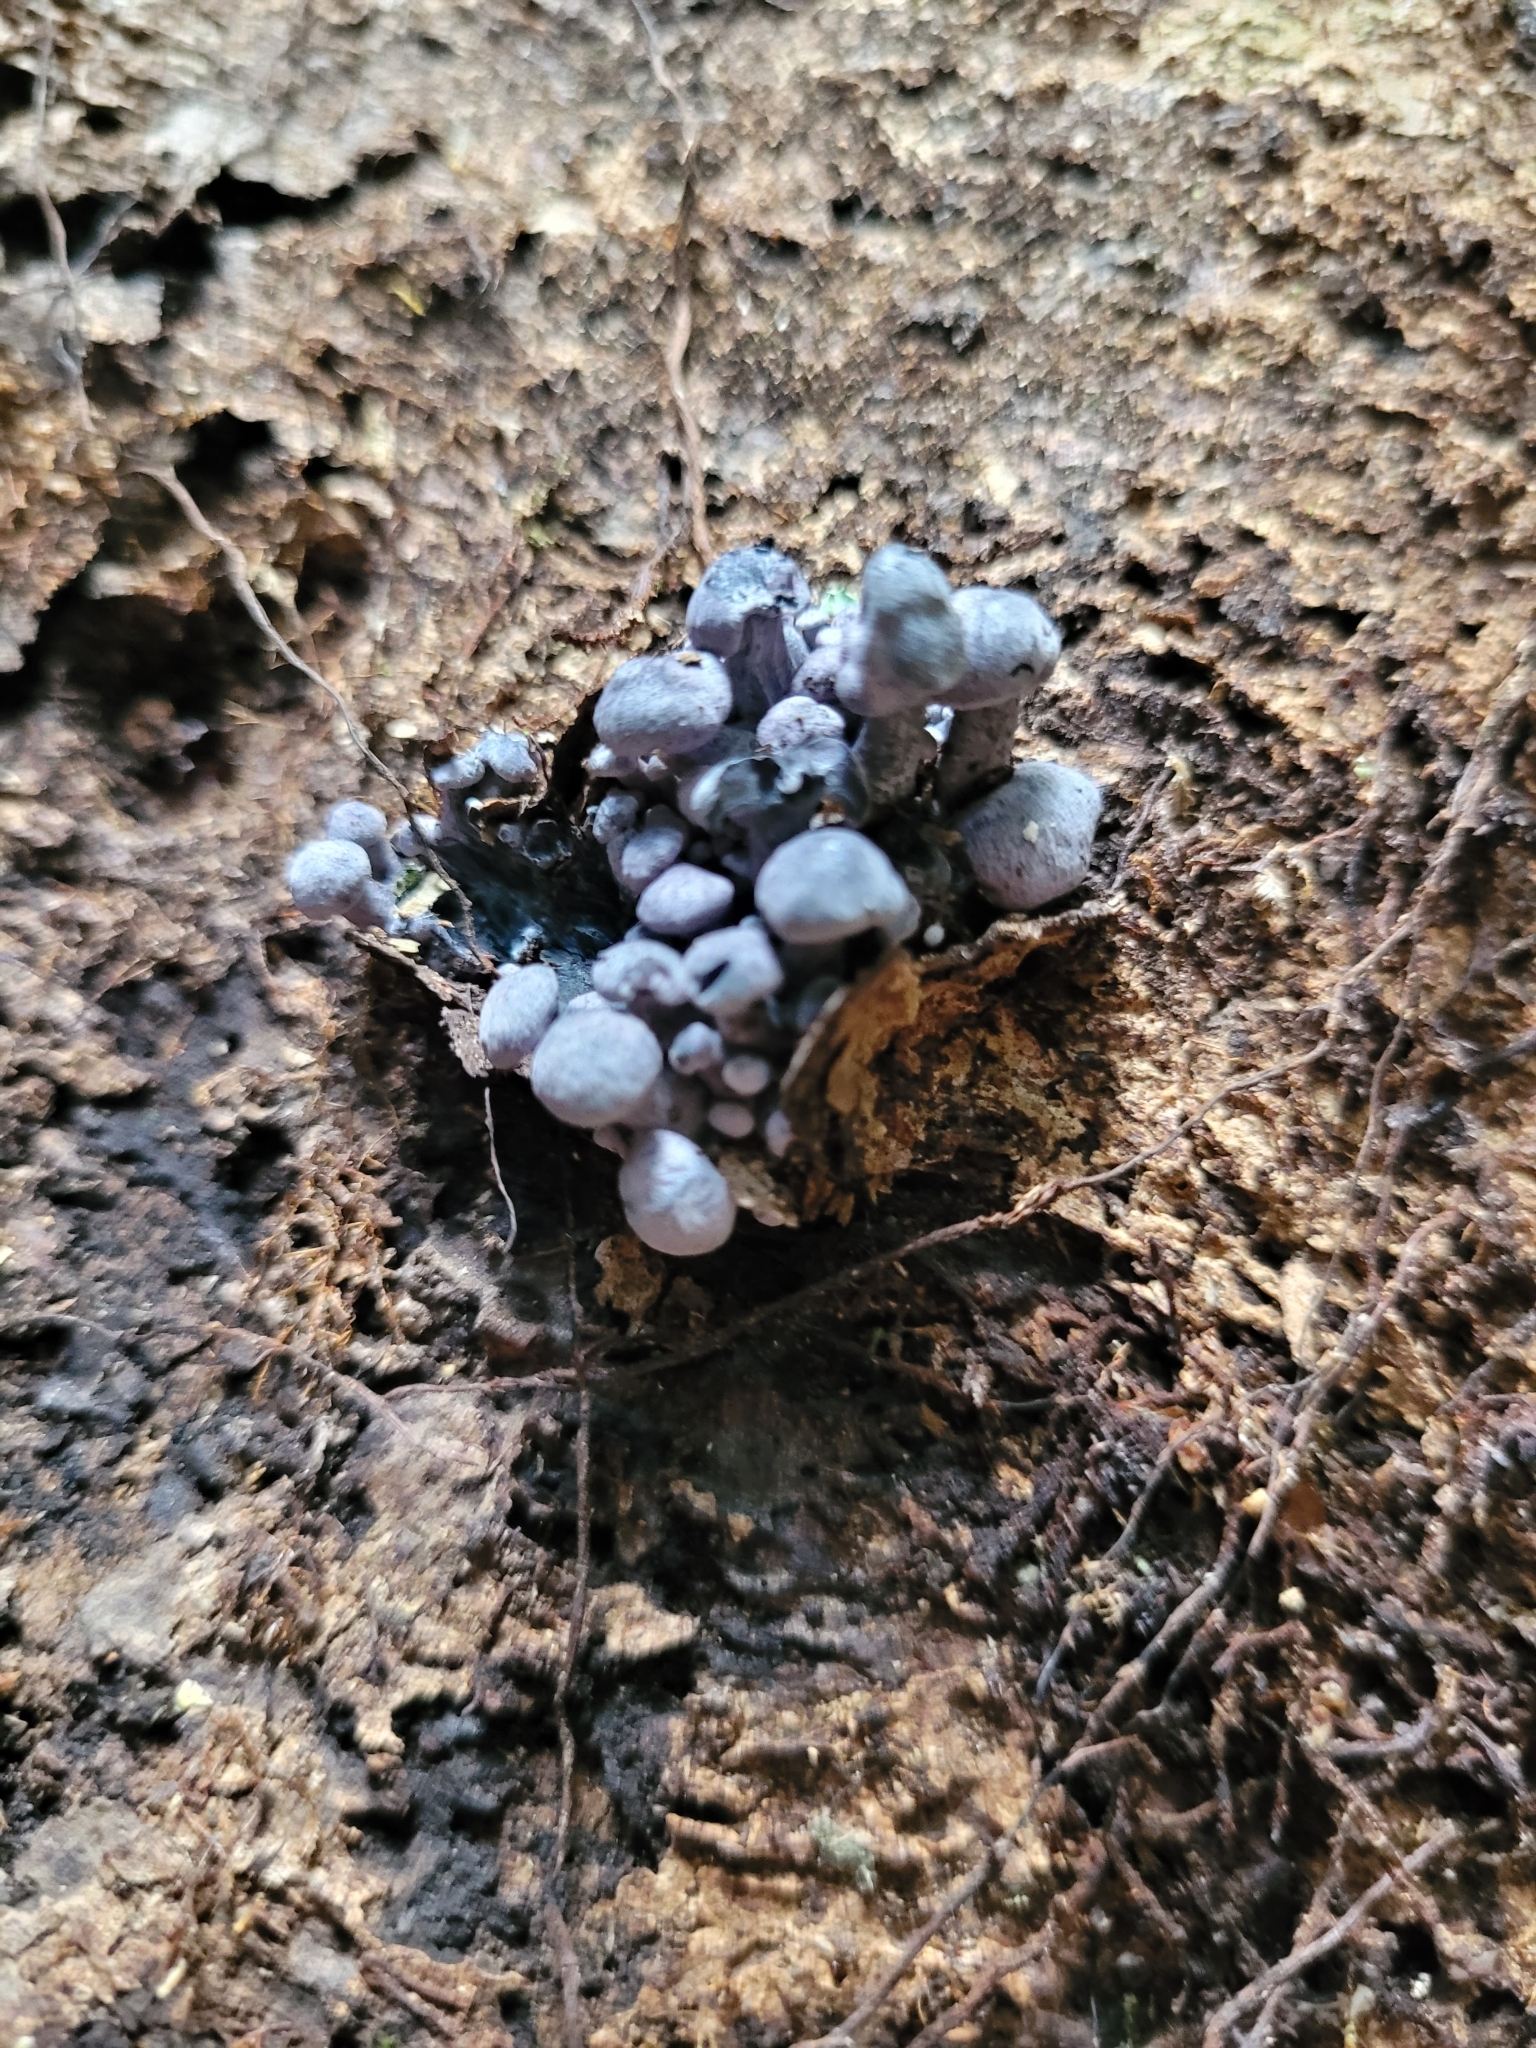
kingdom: Fungi
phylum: Basidiomycota
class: Agaricomycetes
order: Agaricales
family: Marasmiaceae
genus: Gerronema
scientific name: Gerronema waikanaense
